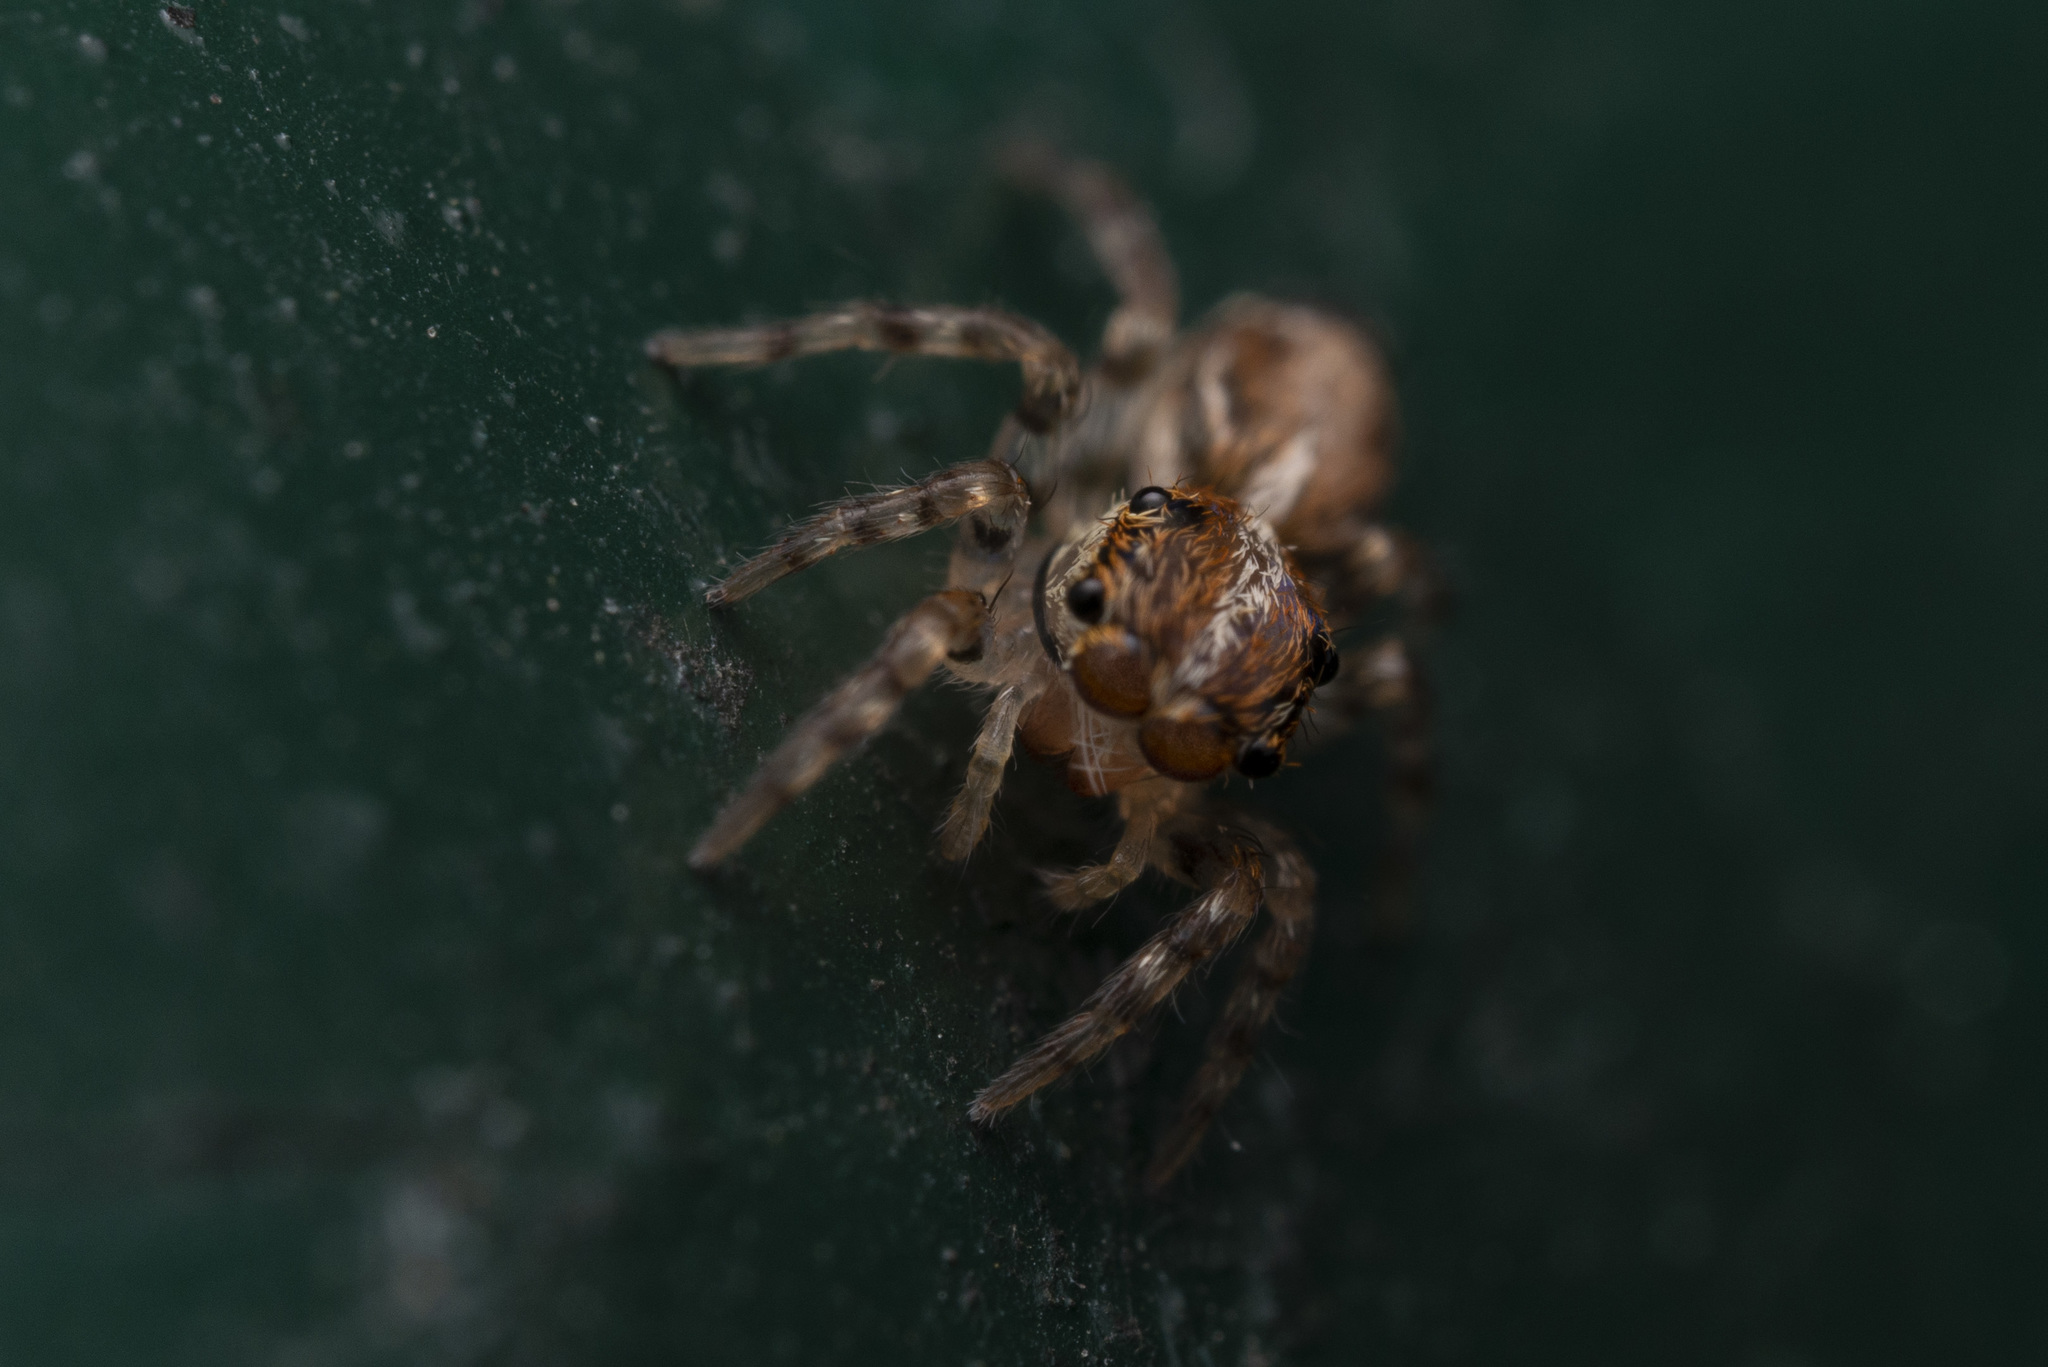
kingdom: Animalia
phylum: Arthropoda
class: Arachnida
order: Araneae
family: Salticidae
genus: Thyene
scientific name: Thyene orientalis
